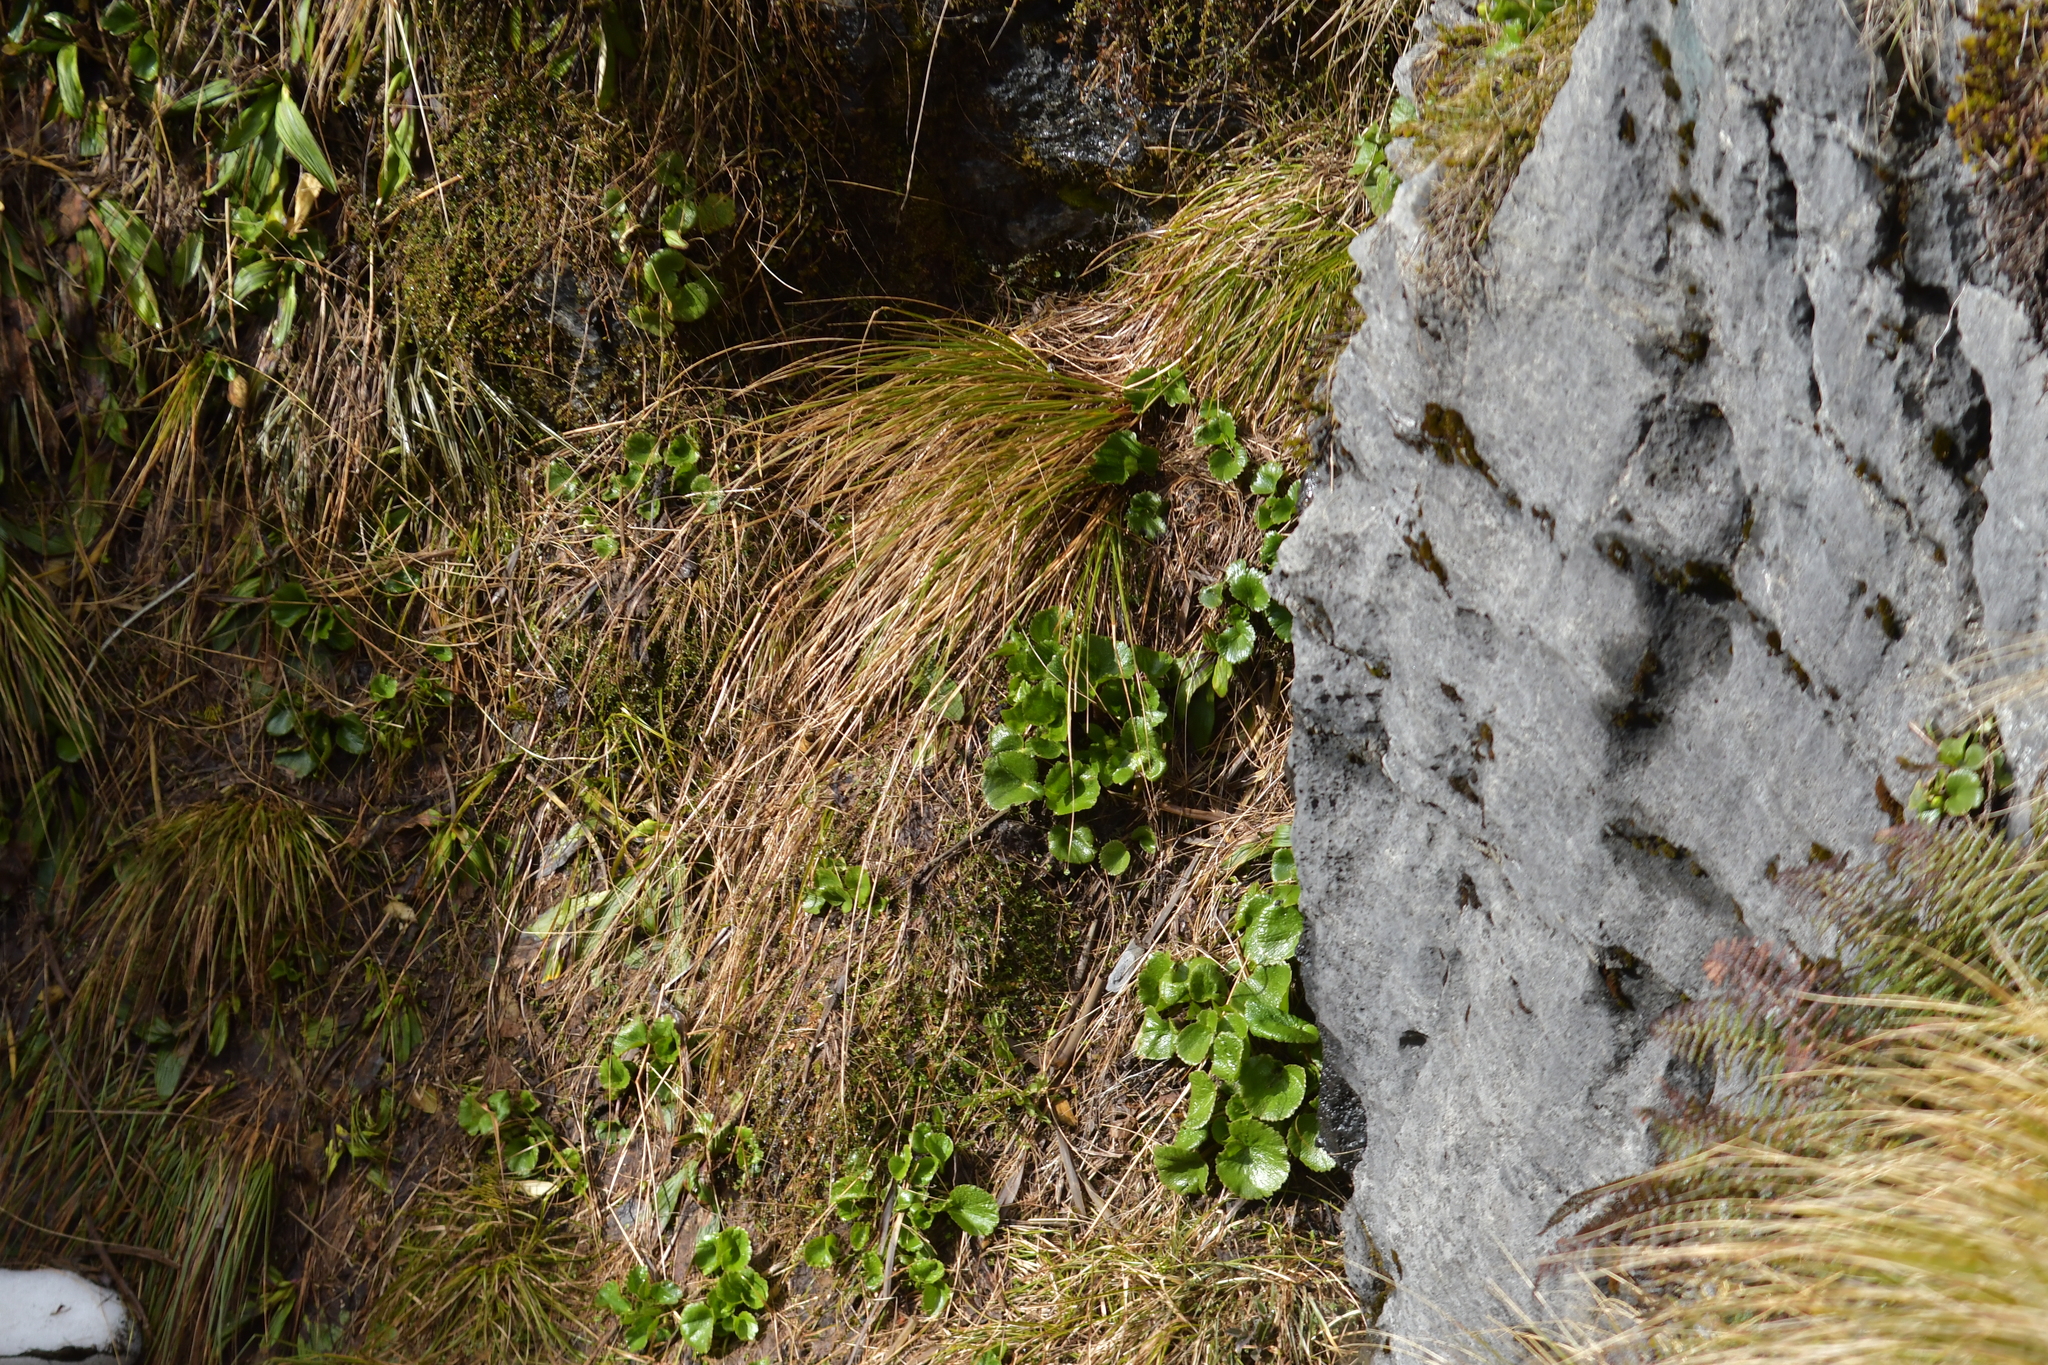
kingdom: Plantae
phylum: Tracheophyta
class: Magnoliopsida
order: Ranunculales
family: Ranunculaceae
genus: Ranunculus
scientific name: Ranunculus insignis
